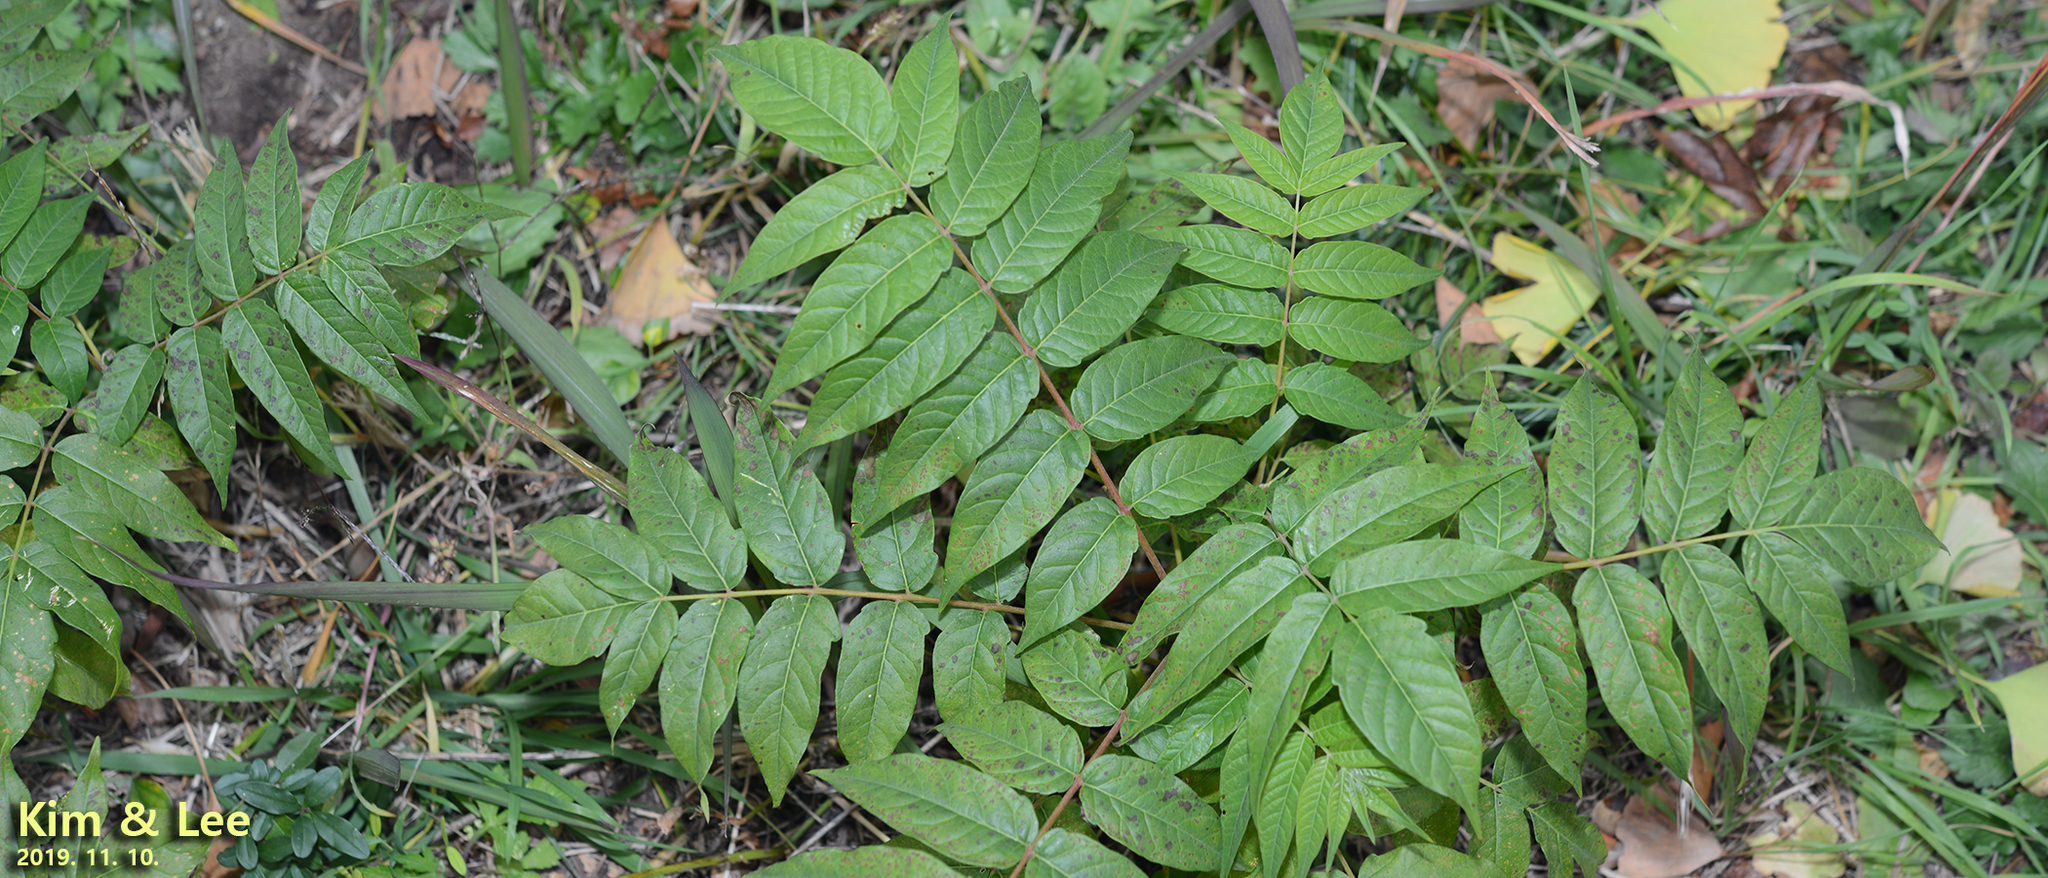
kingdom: Plantae
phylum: Tracheophyta
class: Magnoliopsida
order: Sapindales
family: Simaroubaceae
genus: Ailanthus
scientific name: Ailanthus altissima
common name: Tree-of-heaven
